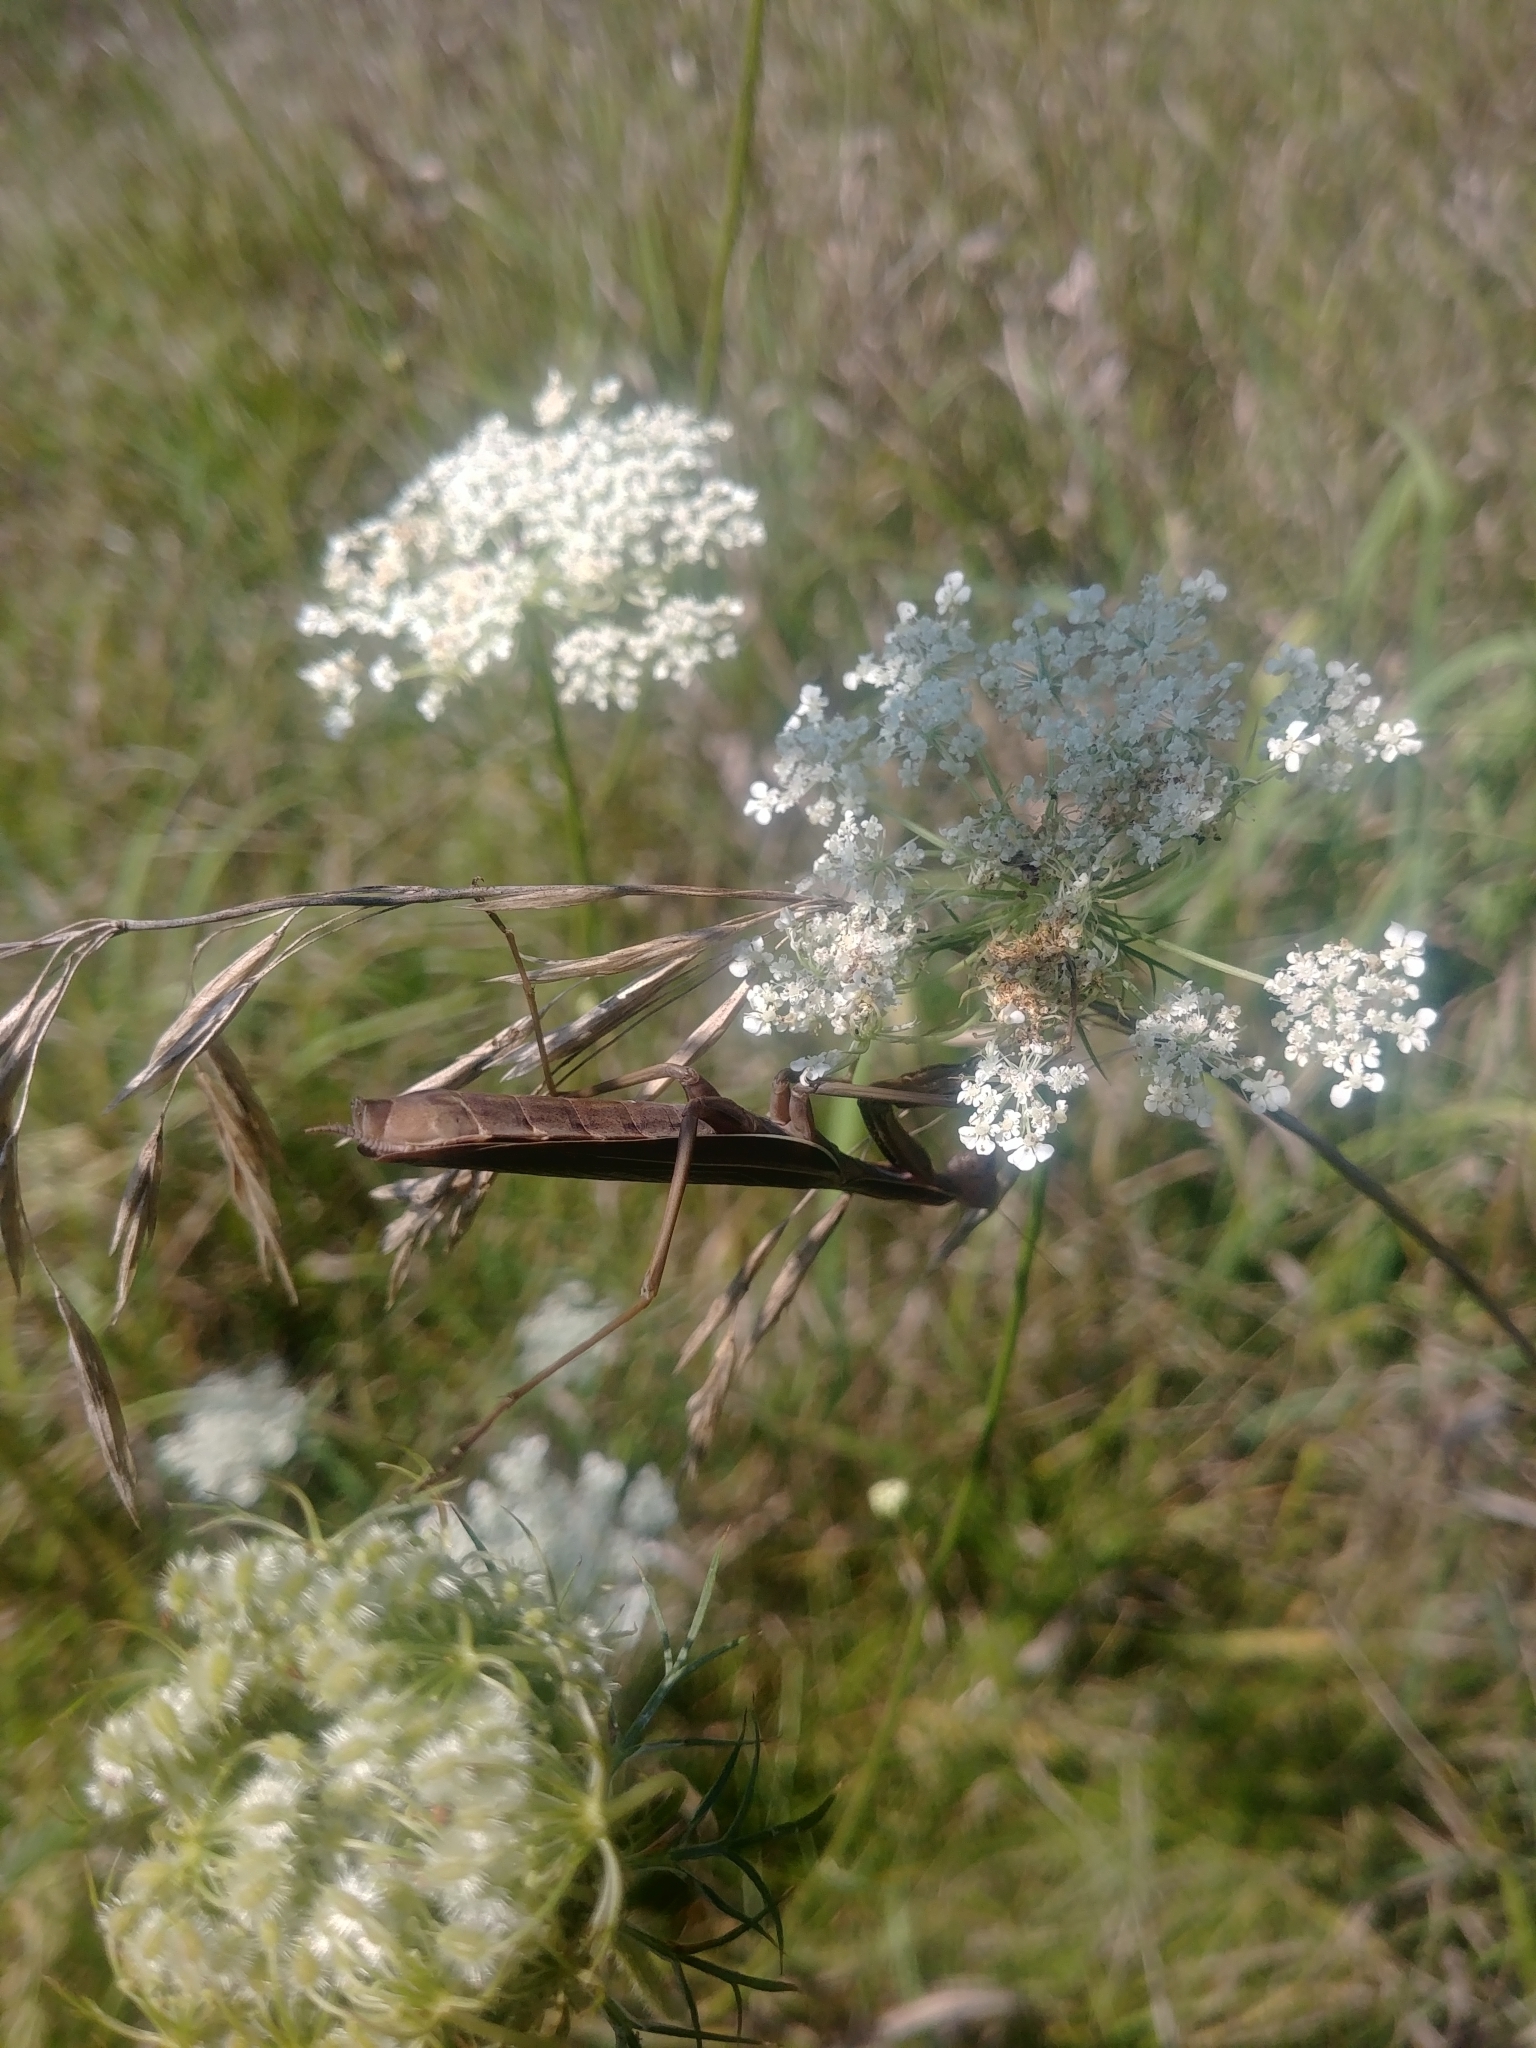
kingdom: Animalia
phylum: Arthropoda
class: Insecta
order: Mantodea
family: Mantidae
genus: Mantis
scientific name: Mantis religiosa
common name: Praying mantis
